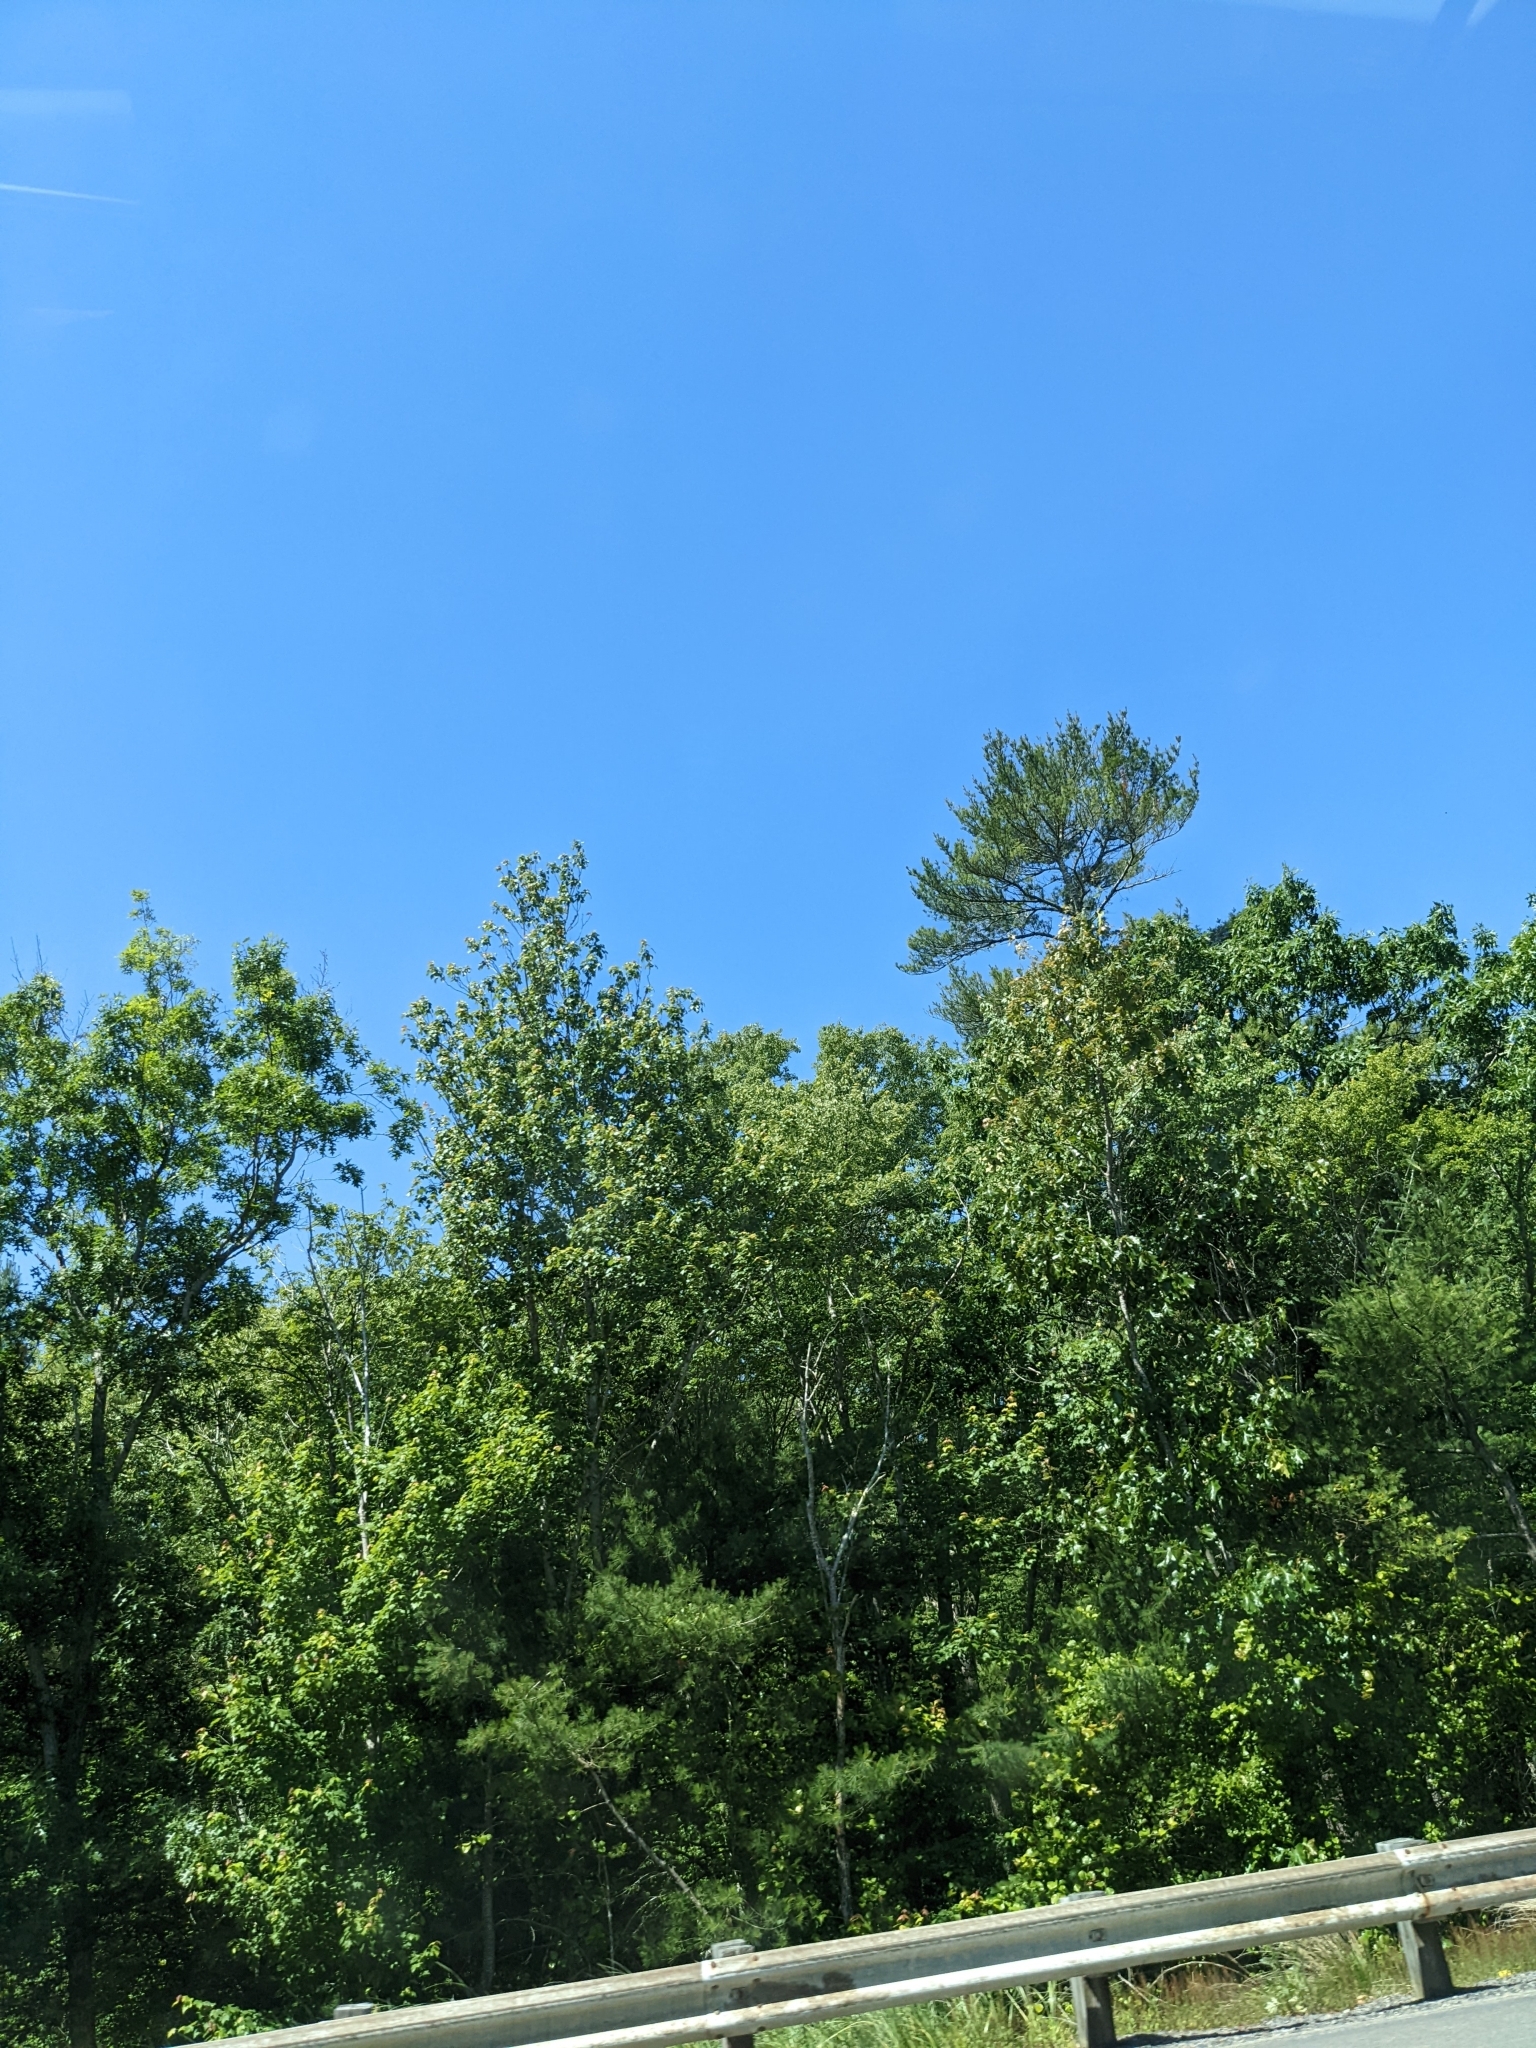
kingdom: Plantae
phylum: Tracheophyta
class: Pinopsida
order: Pinales
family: Pinaceae
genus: Pinus
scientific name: Pinus strobus
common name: Weymouth pine
